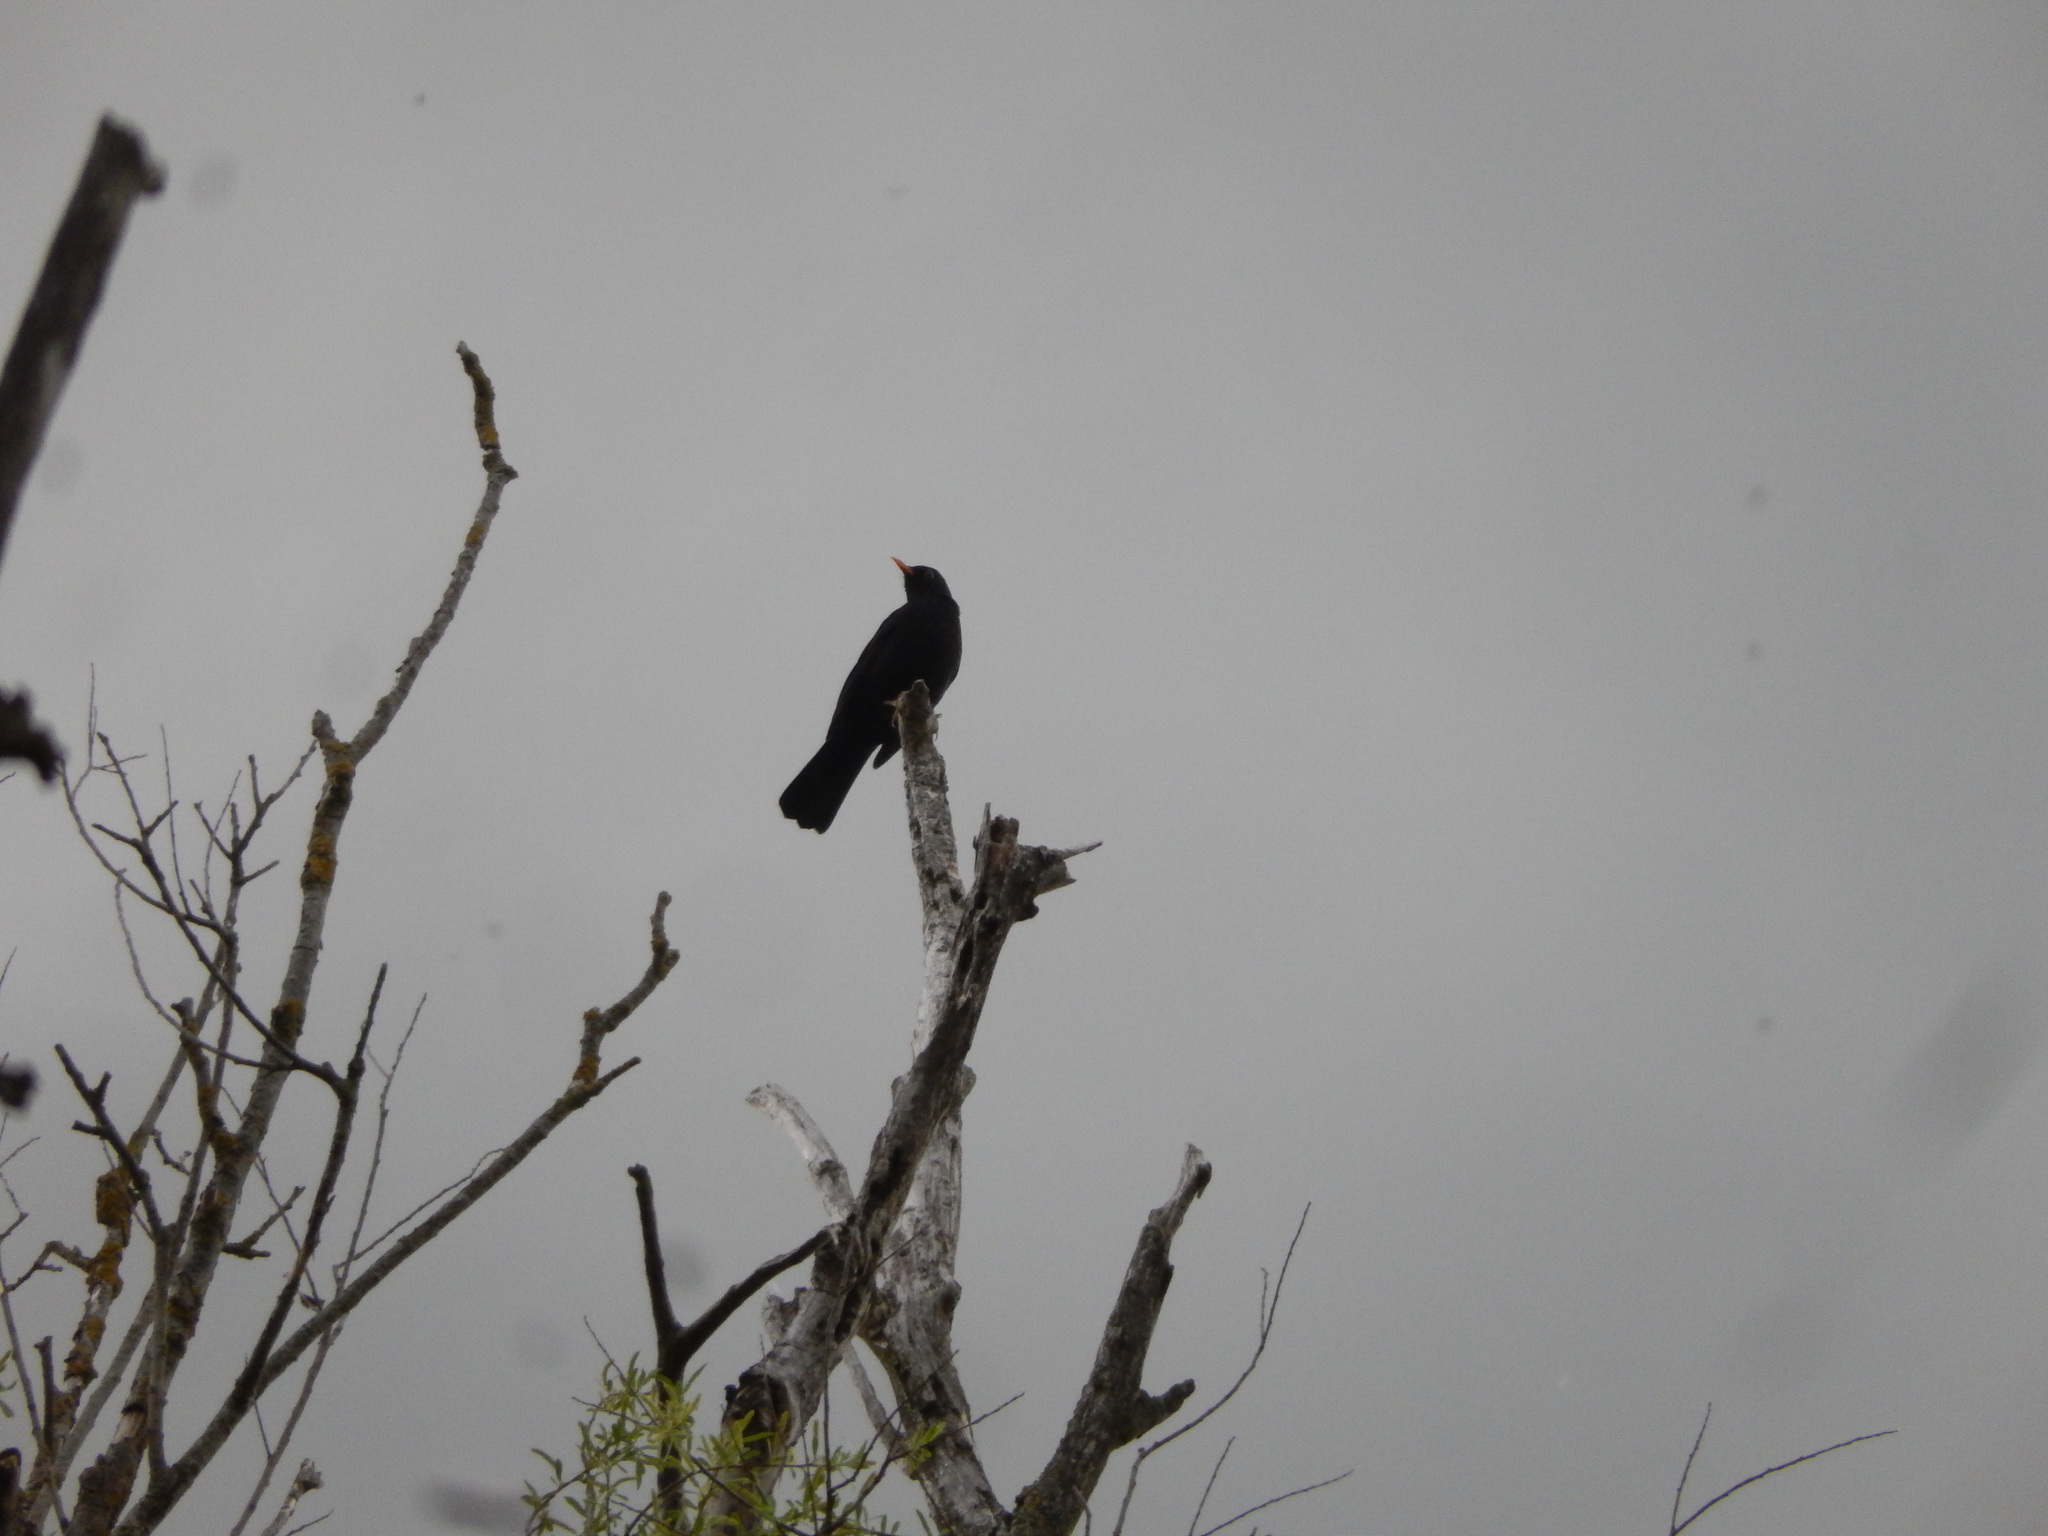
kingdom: Animalia
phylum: Chordata
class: Aves
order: Passeriformes
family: Turdidae
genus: Turdus
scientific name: Turdus merula
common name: Common blackbird
